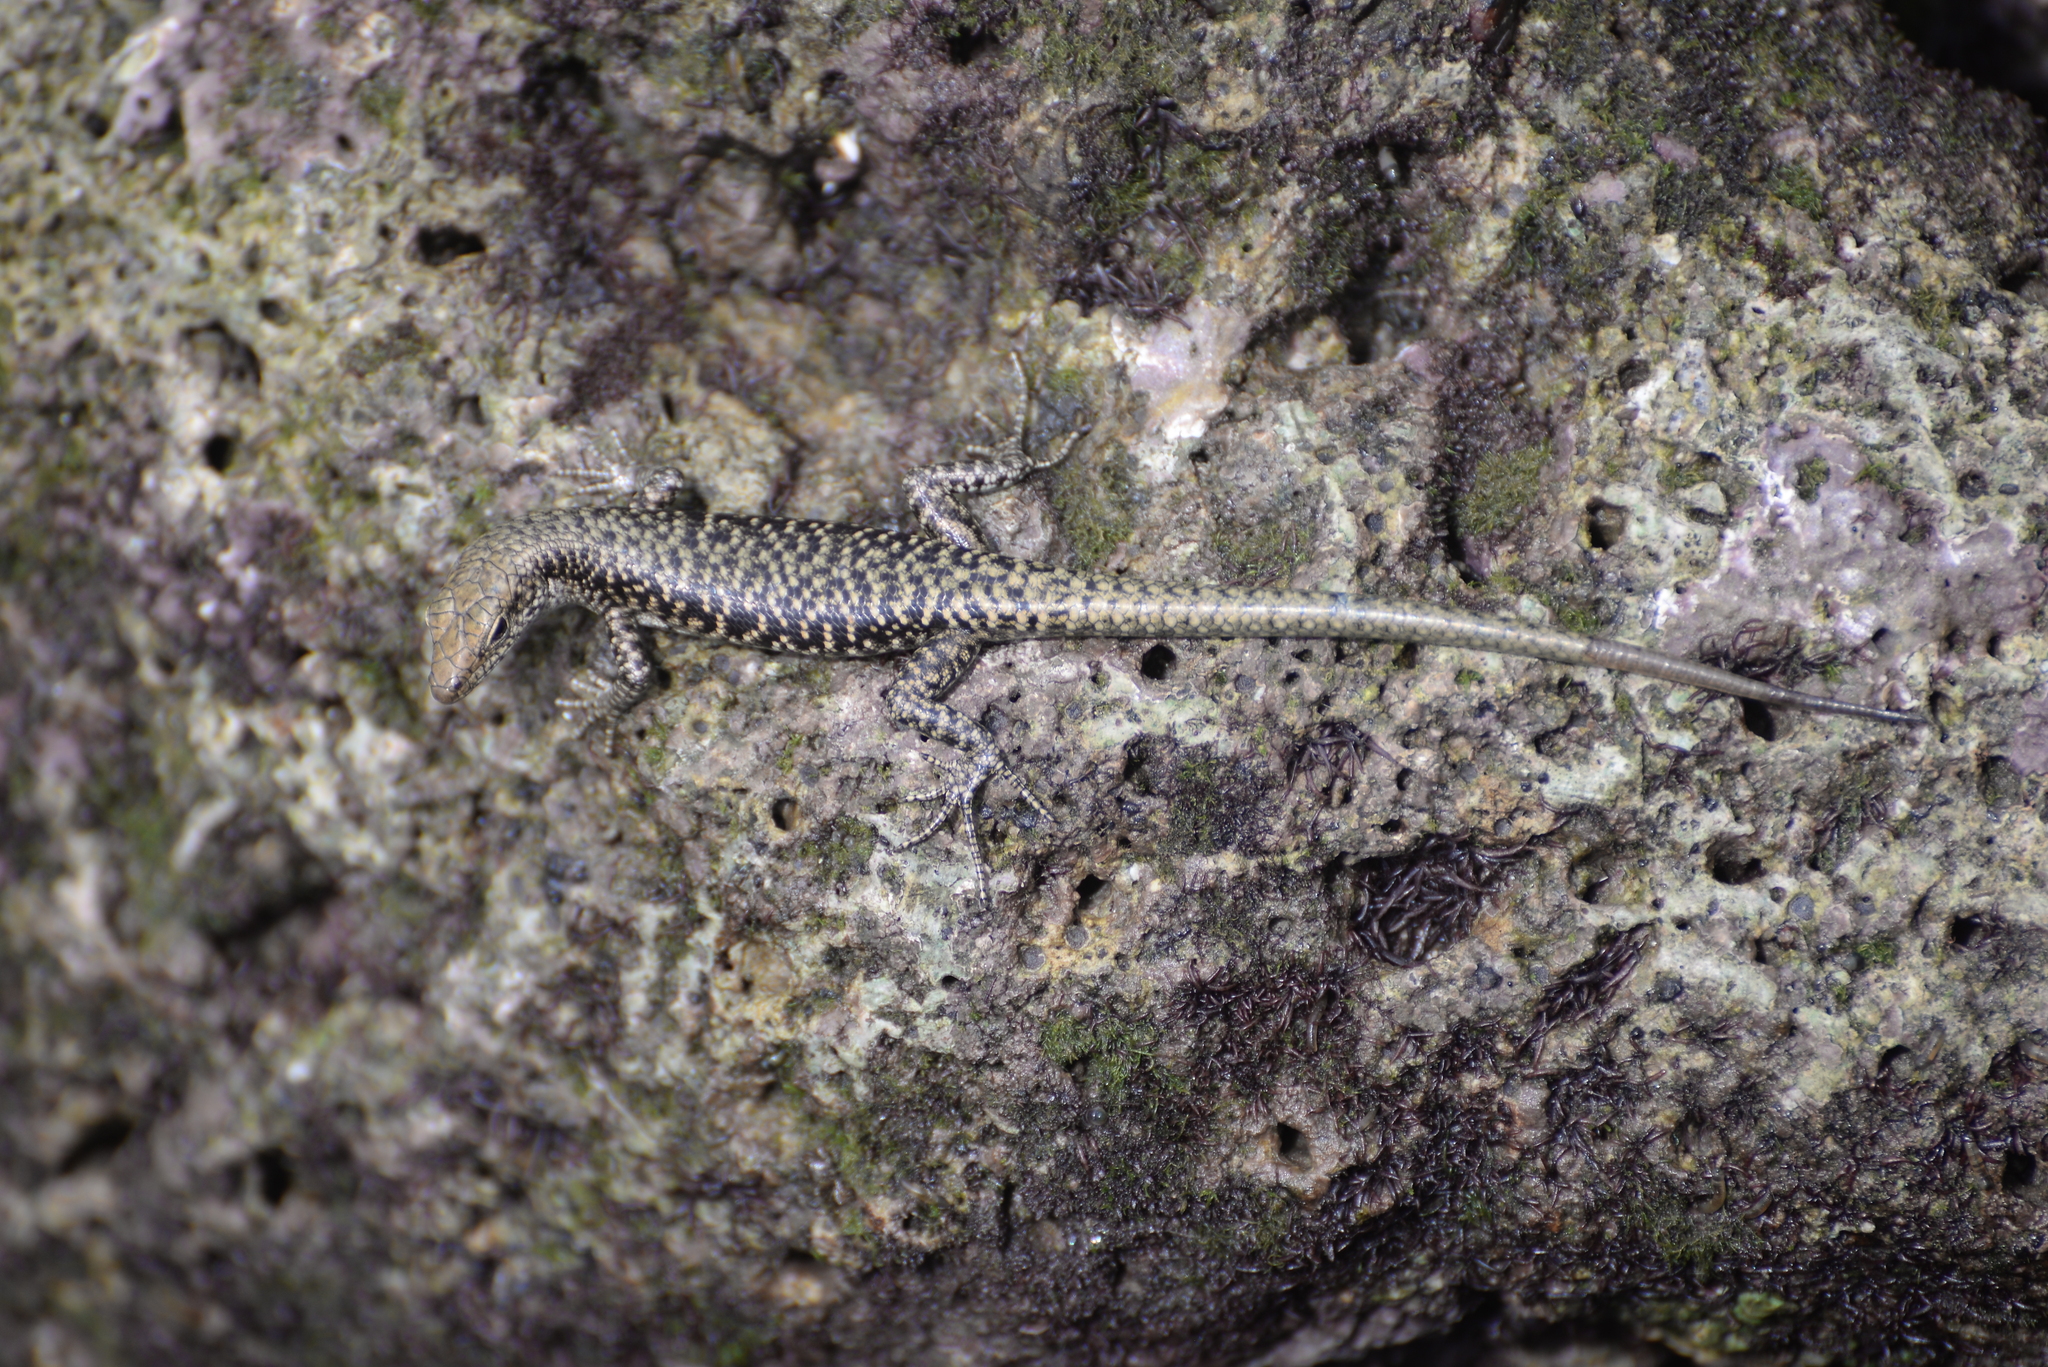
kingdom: Animalia
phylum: Chordata
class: Squamata
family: Scincidae
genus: Emoia
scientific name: Emoia atrocostata
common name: Littoral skink
